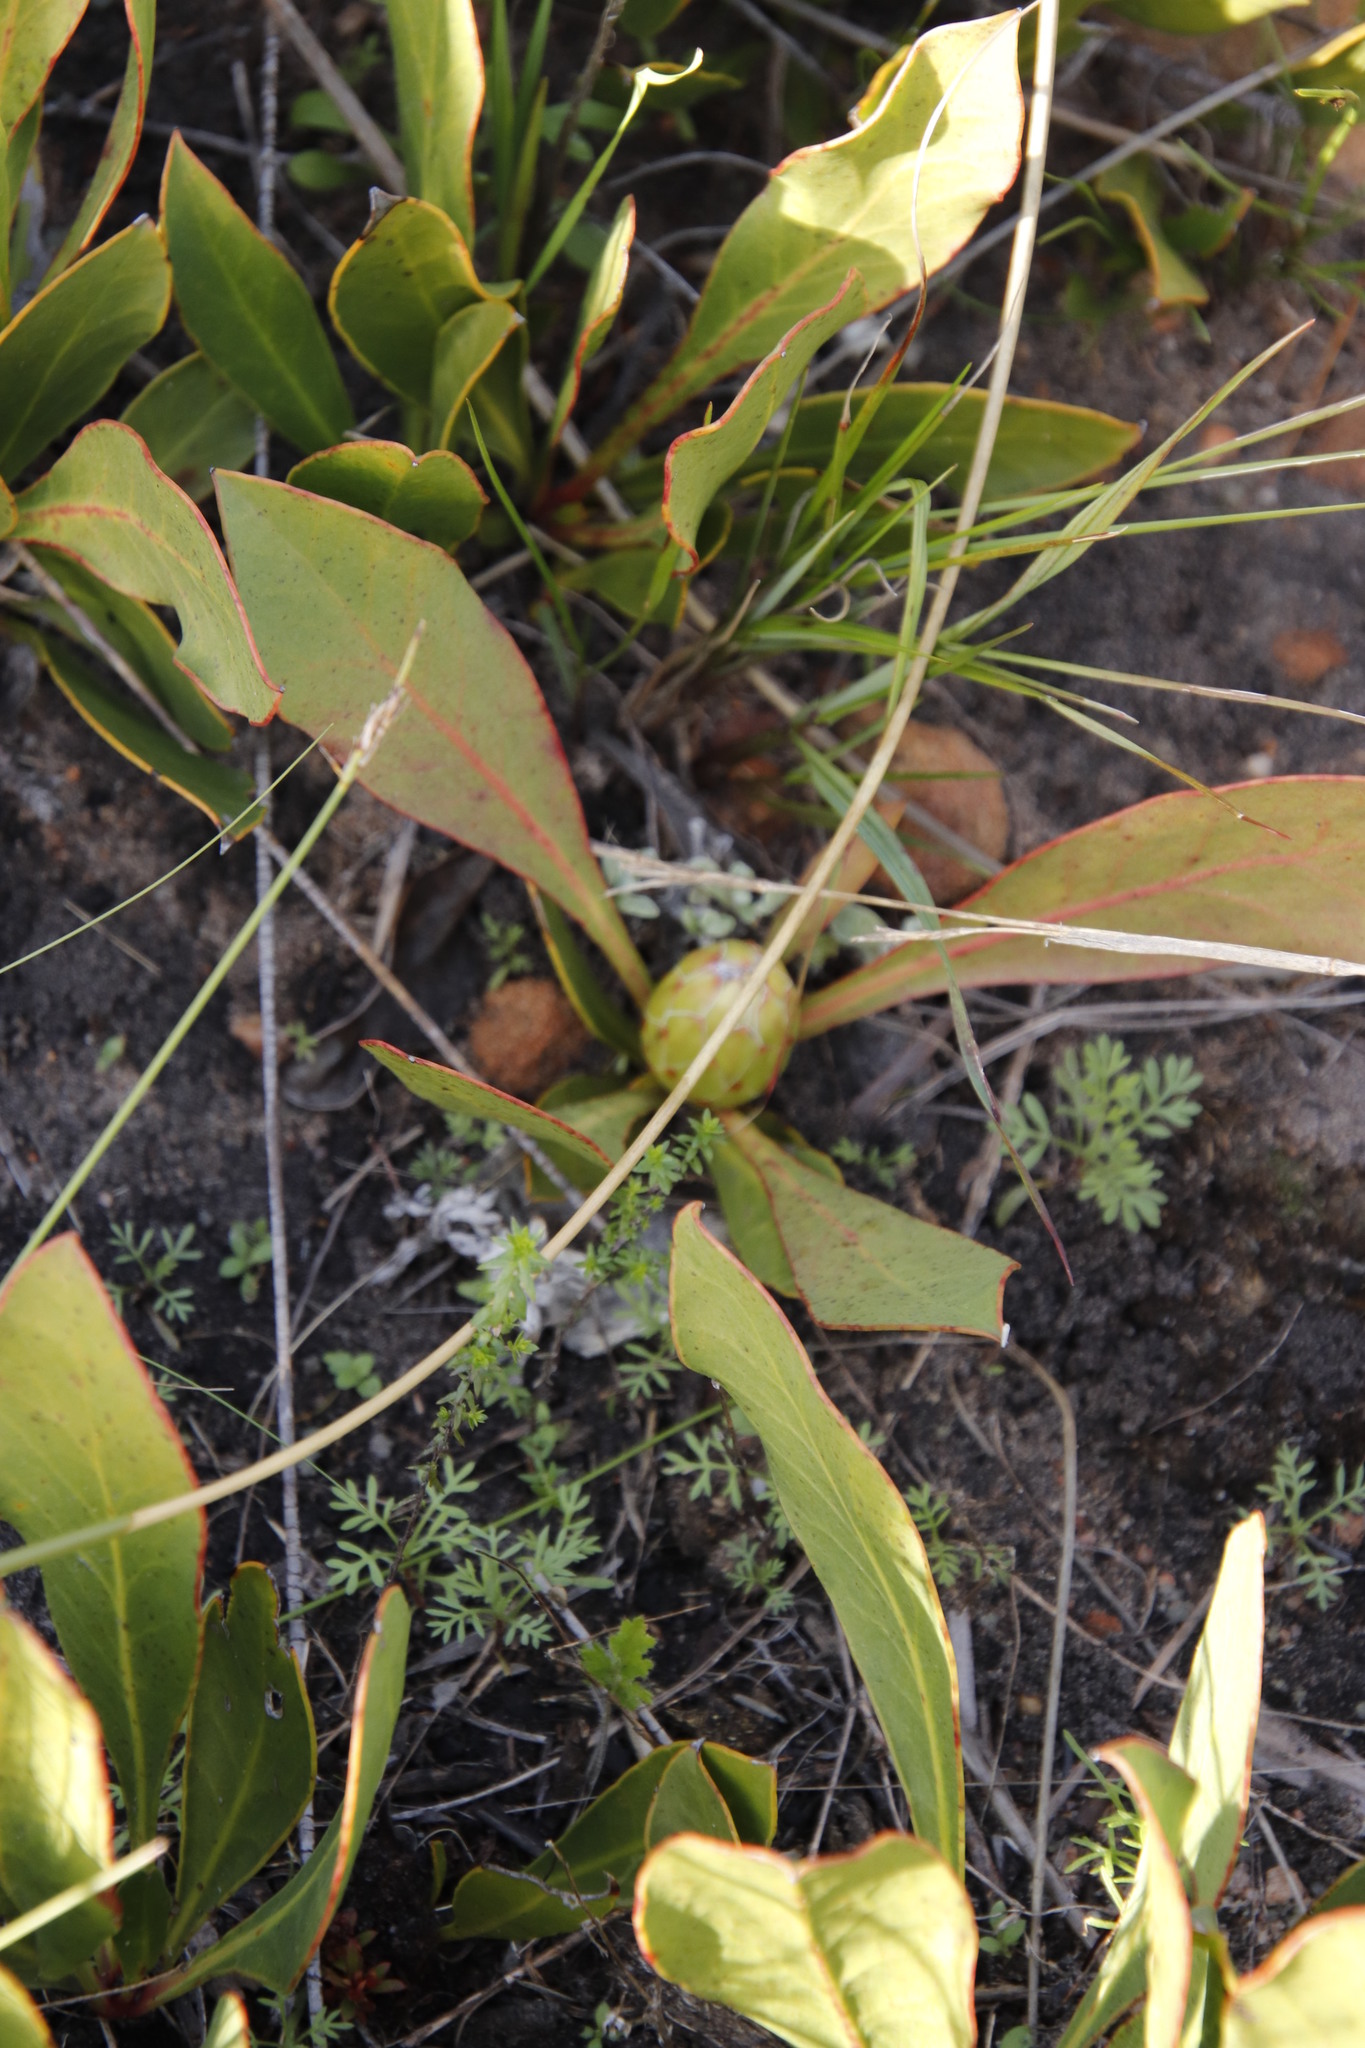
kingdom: Plantae
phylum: Tracheophyta
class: Magnoliopsida
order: Proteales
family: Proteaceae
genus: Protea
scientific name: Protea acaulos
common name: Common ground sugarbush
